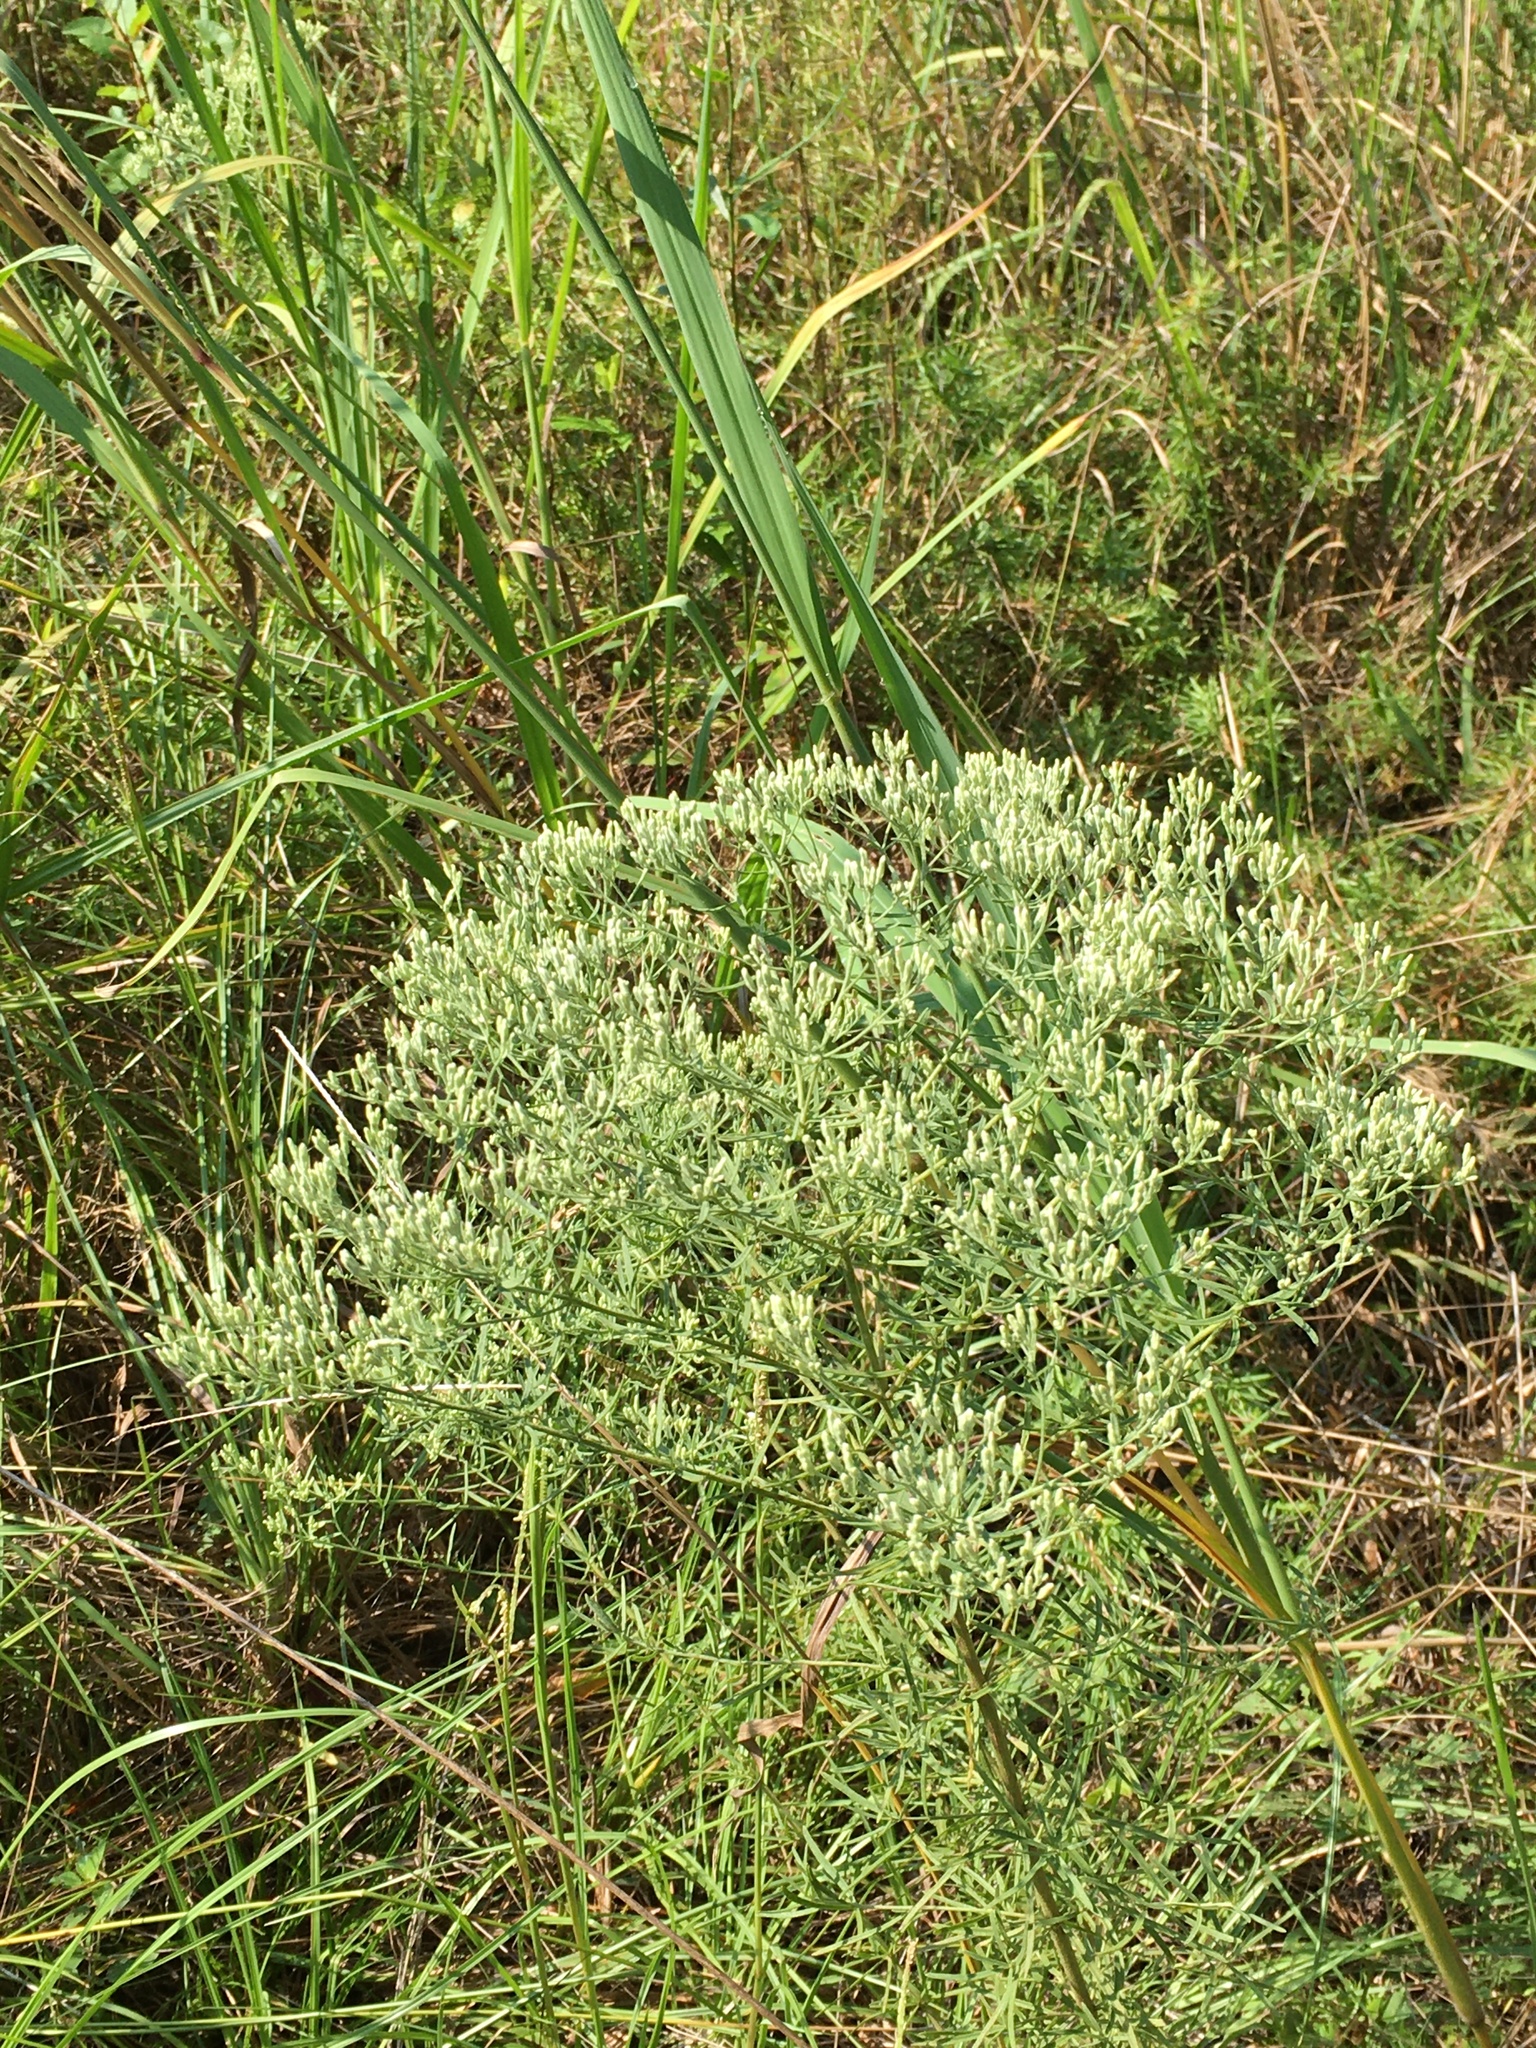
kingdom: Plantae
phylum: Tracheophyta
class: Magnoliopsida
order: Asterales
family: Asteraceae
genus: Eupatorium
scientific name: Eupatorium hyssopifolium
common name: Hyssop-leaf thoroughwort
